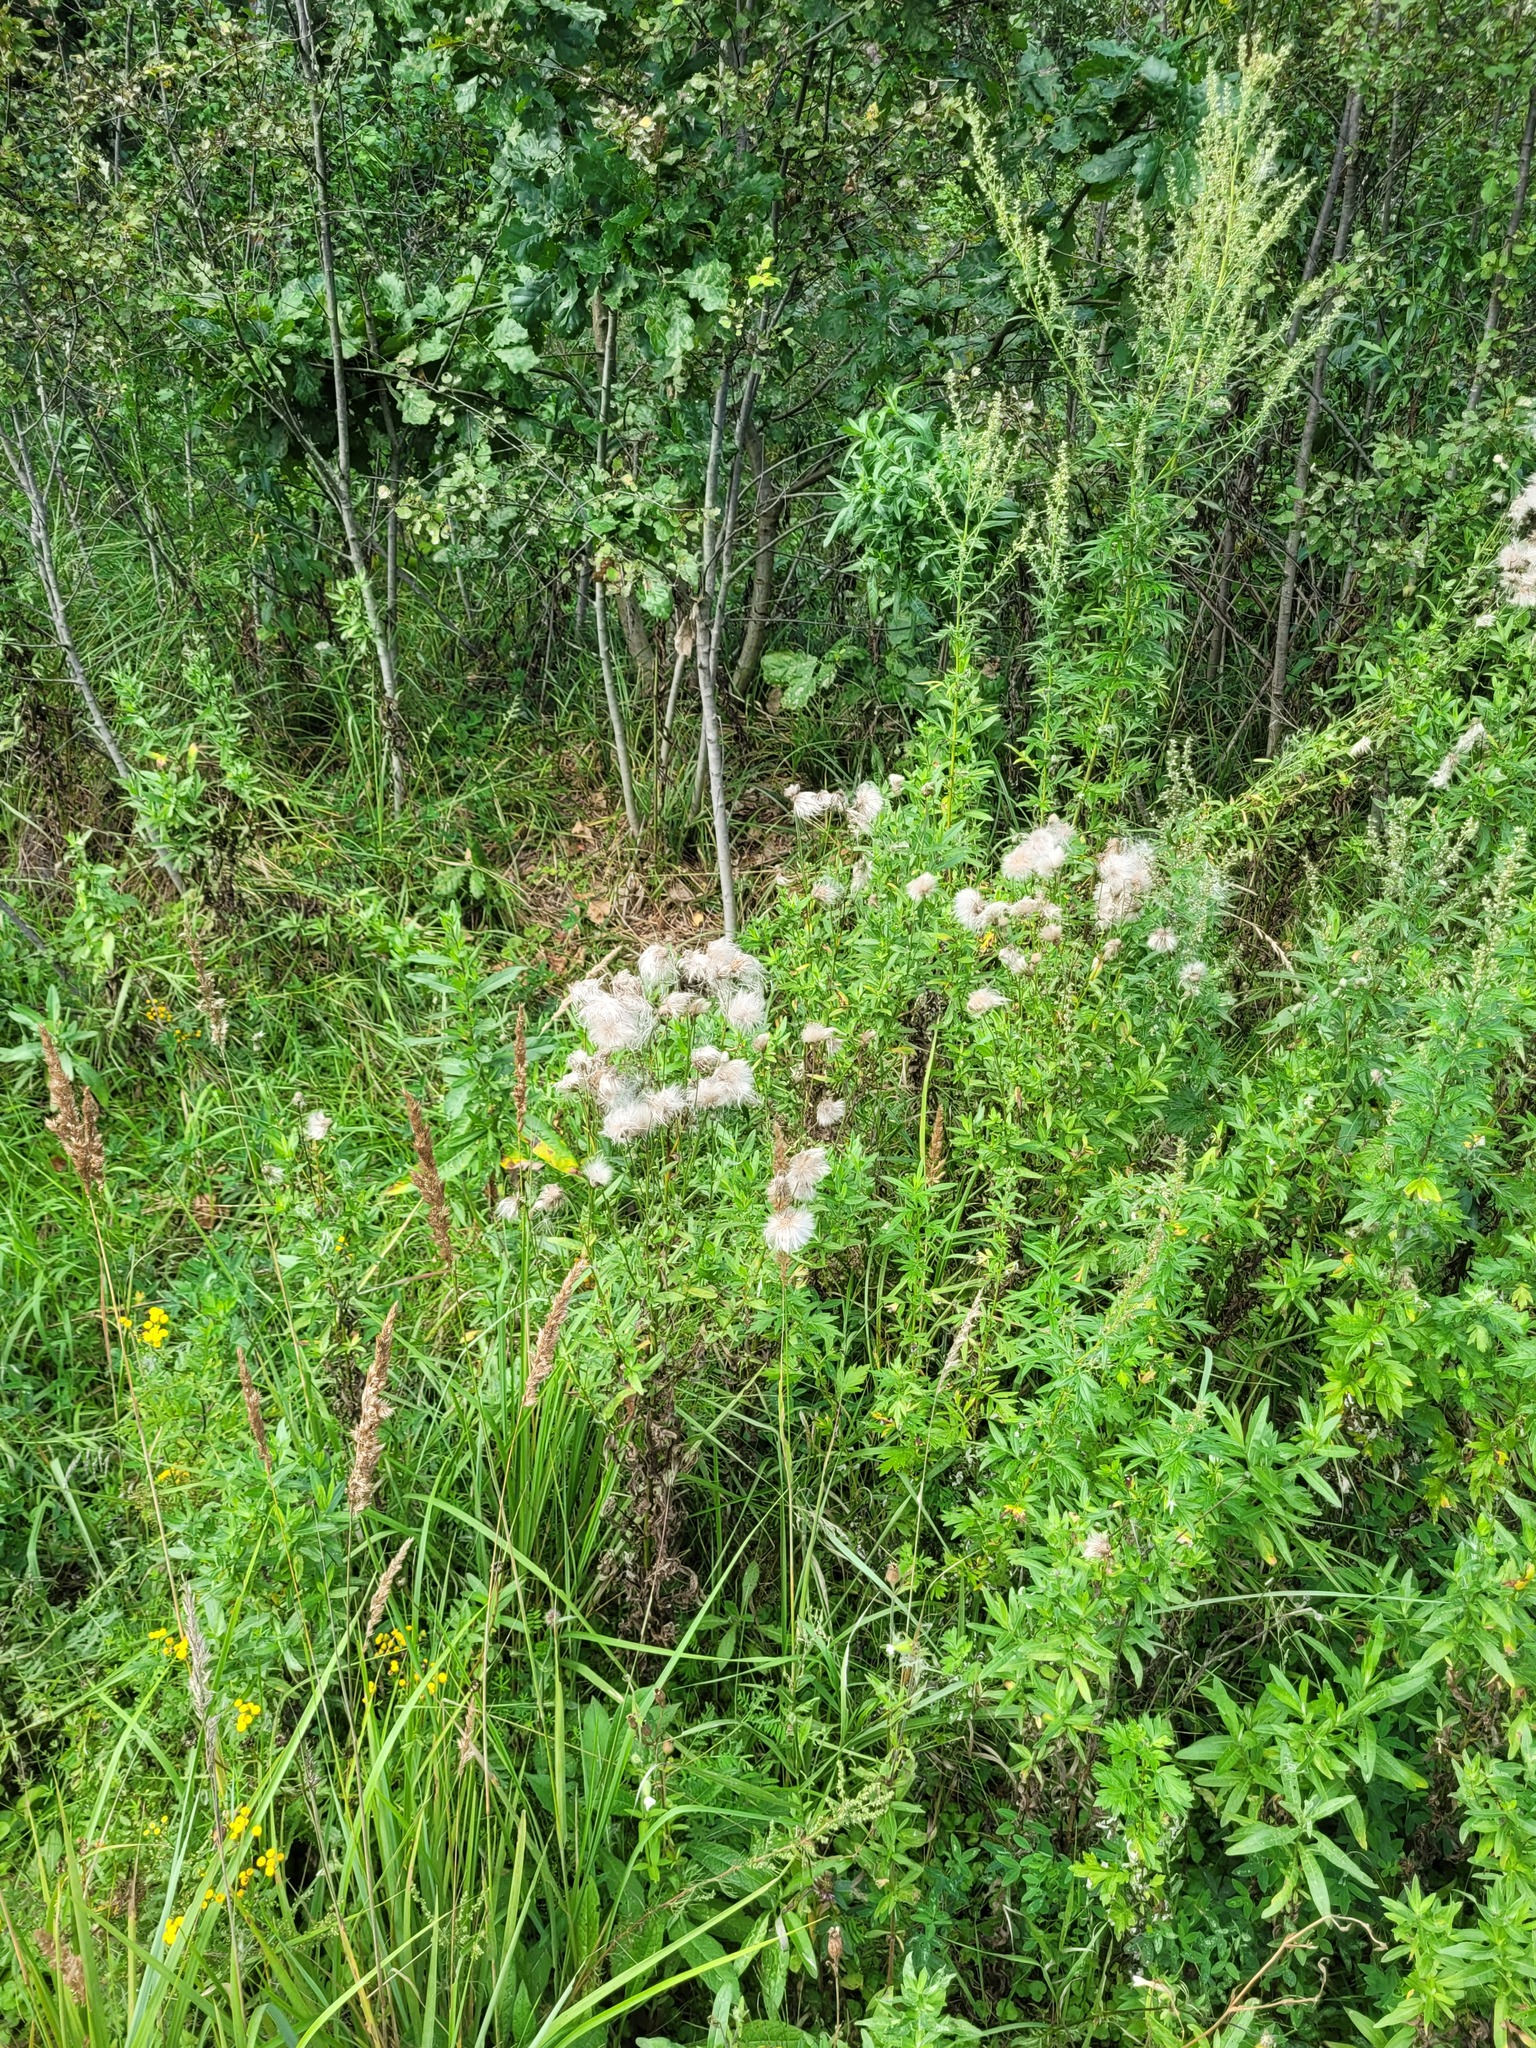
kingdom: Plantae
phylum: Tracheophyta
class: Magnoliopsida
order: Asterales
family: Asteraceae
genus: Cirsium
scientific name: Cirsium arvense
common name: Creeping thistle
